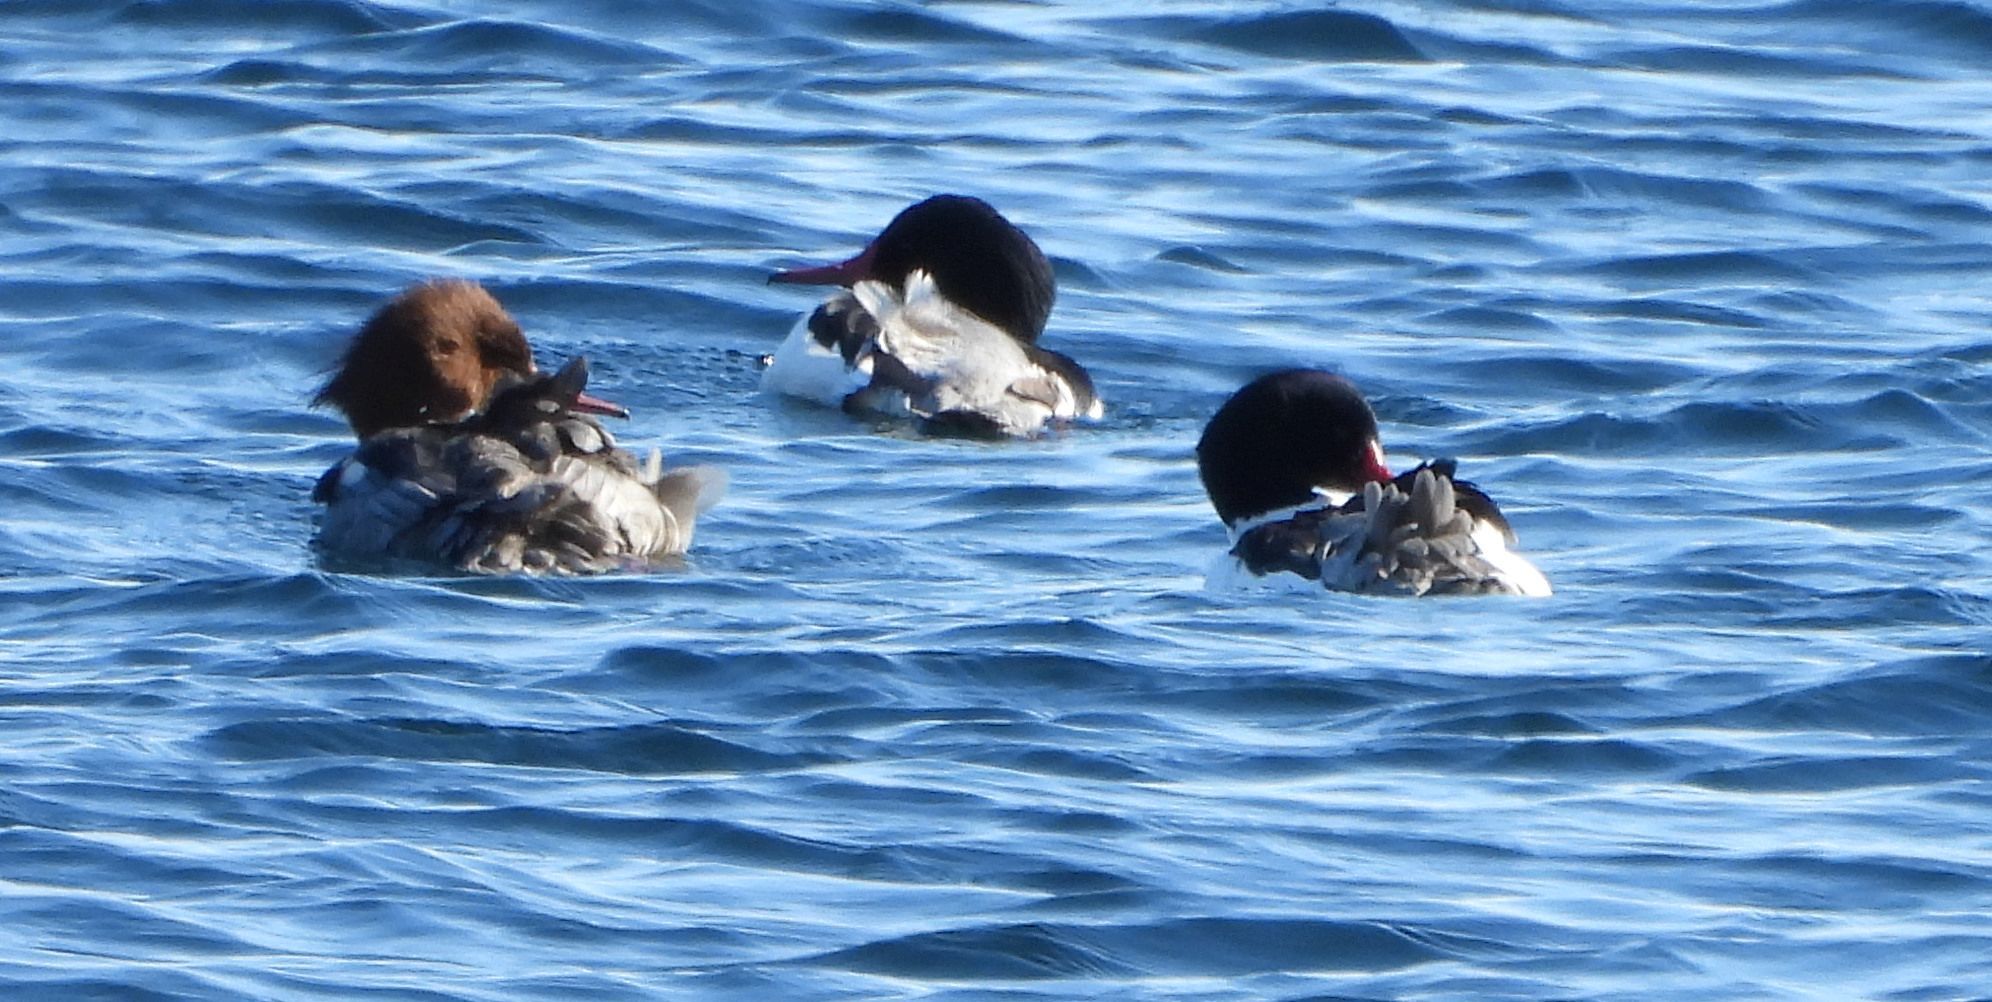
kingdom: Animalia
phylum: Chordata
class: Aves
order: Anseriformes
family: Anatidae
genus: Mergus
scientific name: Mergus merganser
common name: Common merganser
